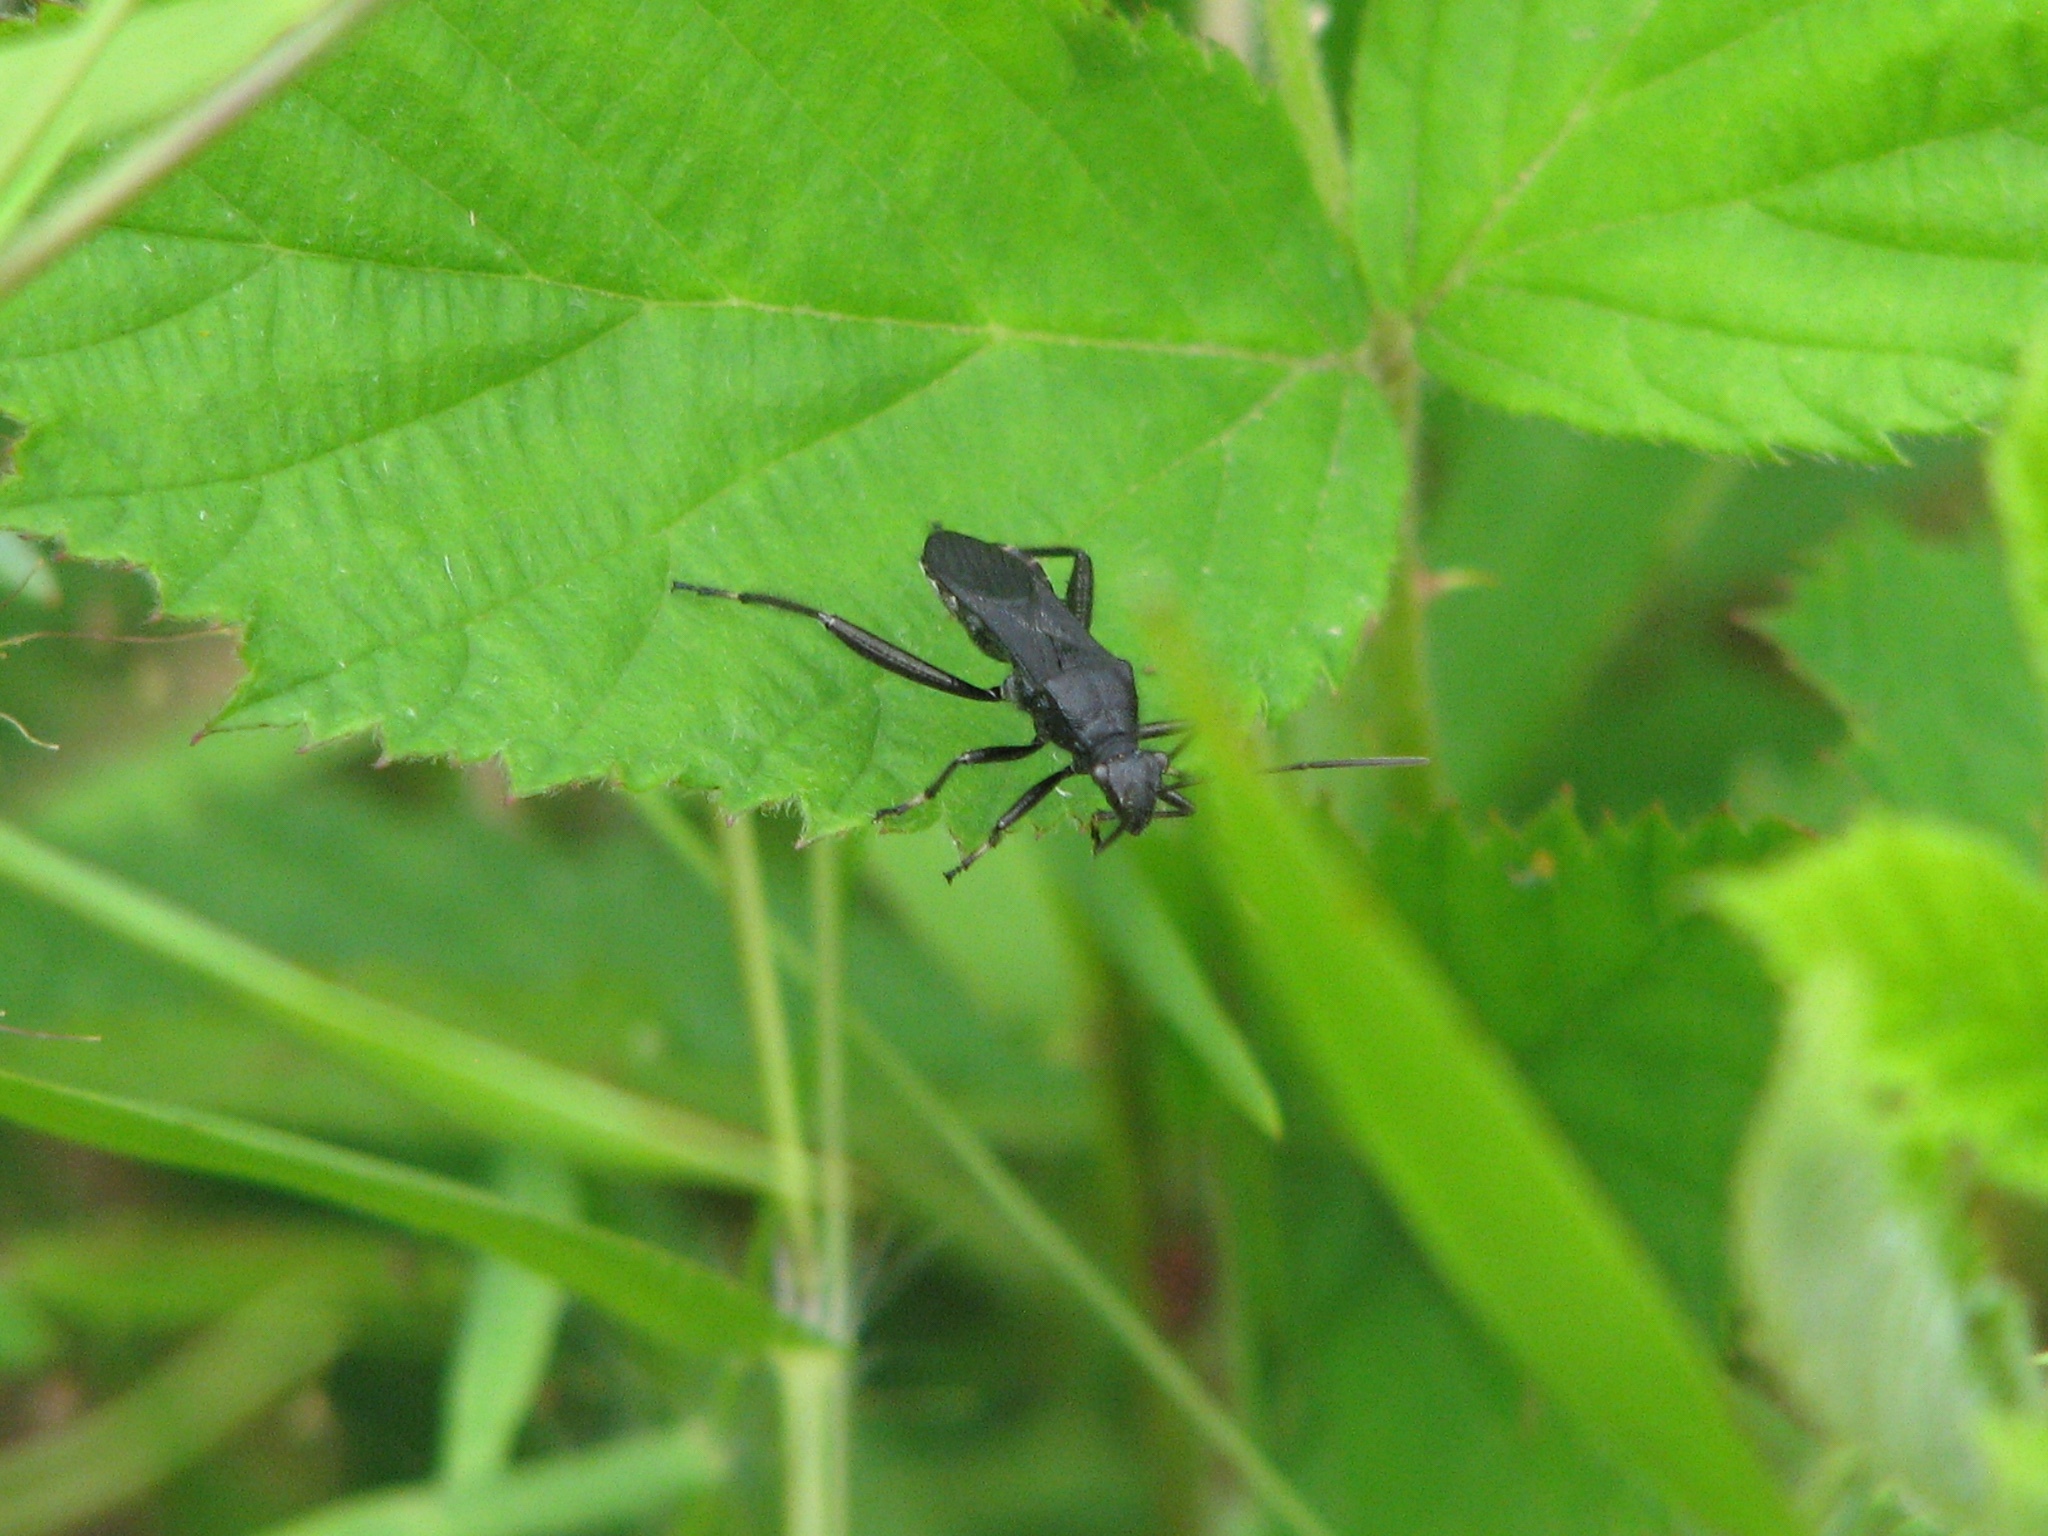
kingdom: Animalia
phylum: Arthropoda
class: Insecta
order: Hemiptera
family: Alydidae
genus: Alydus
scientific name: Alydus eurinus
